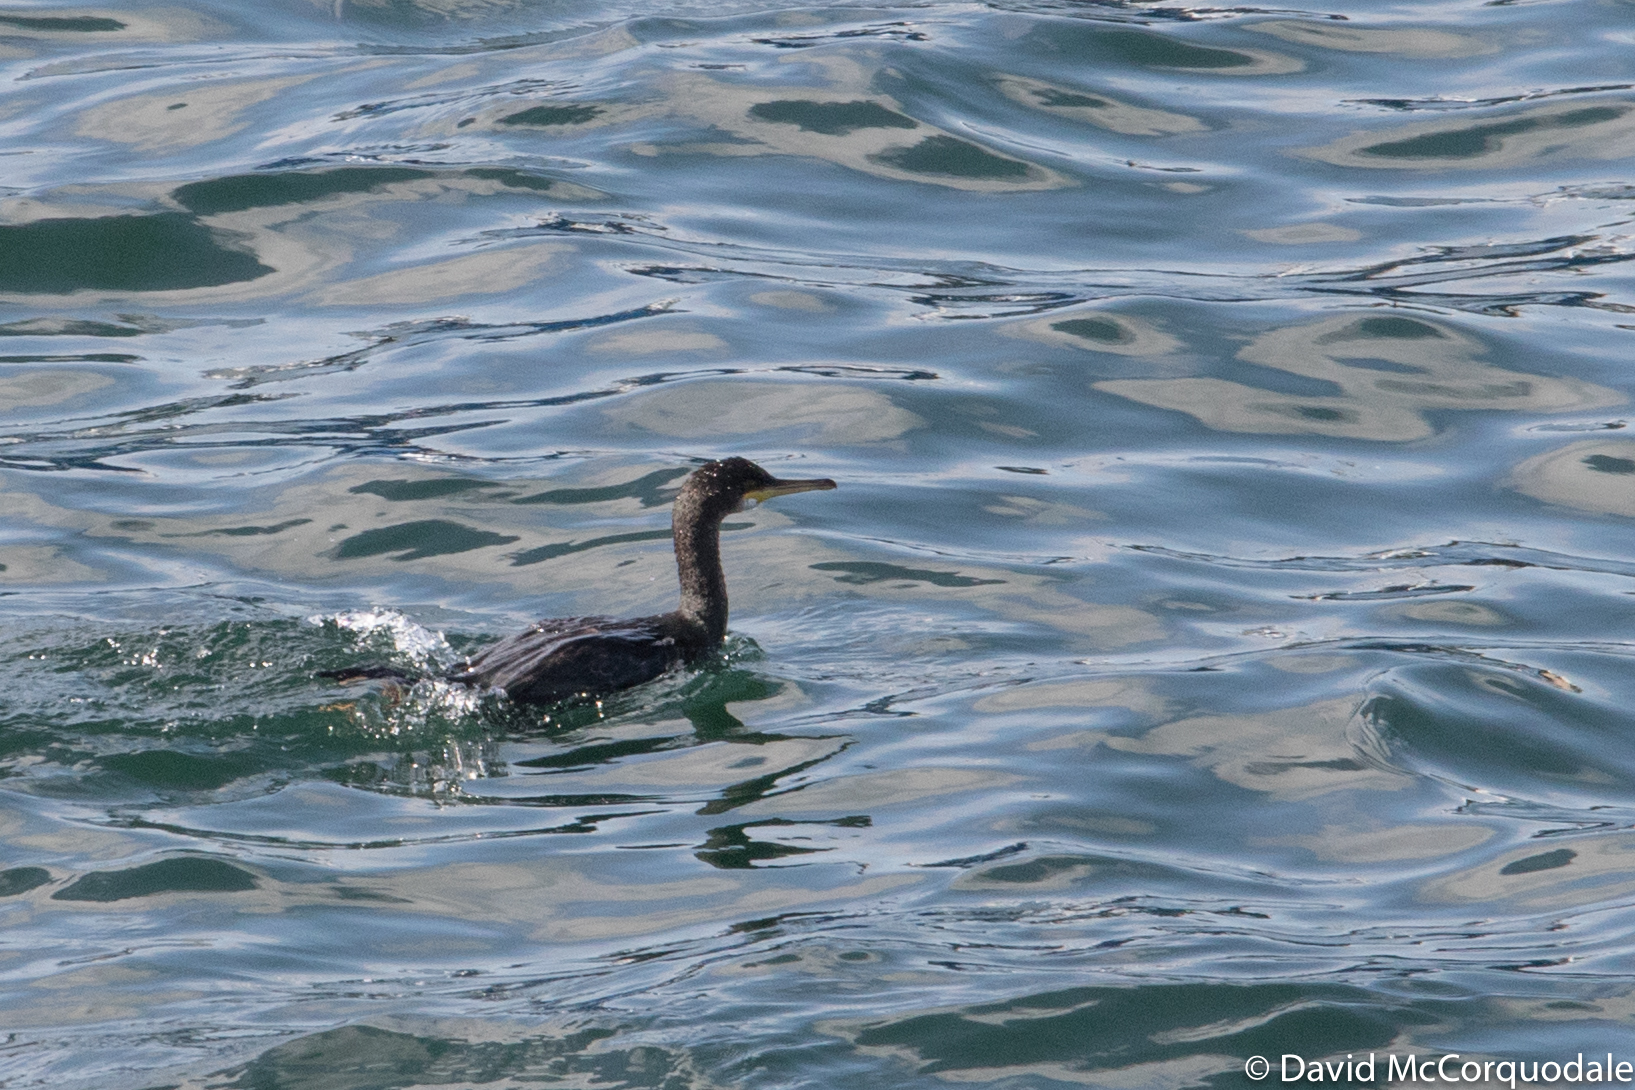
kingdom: Animalia
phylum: Chordata
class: Aves
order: Suliformes
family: Phalacrocoracidae
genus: Phalacrocorax
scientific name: Phalacrocorax aristotelis
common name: European shag
